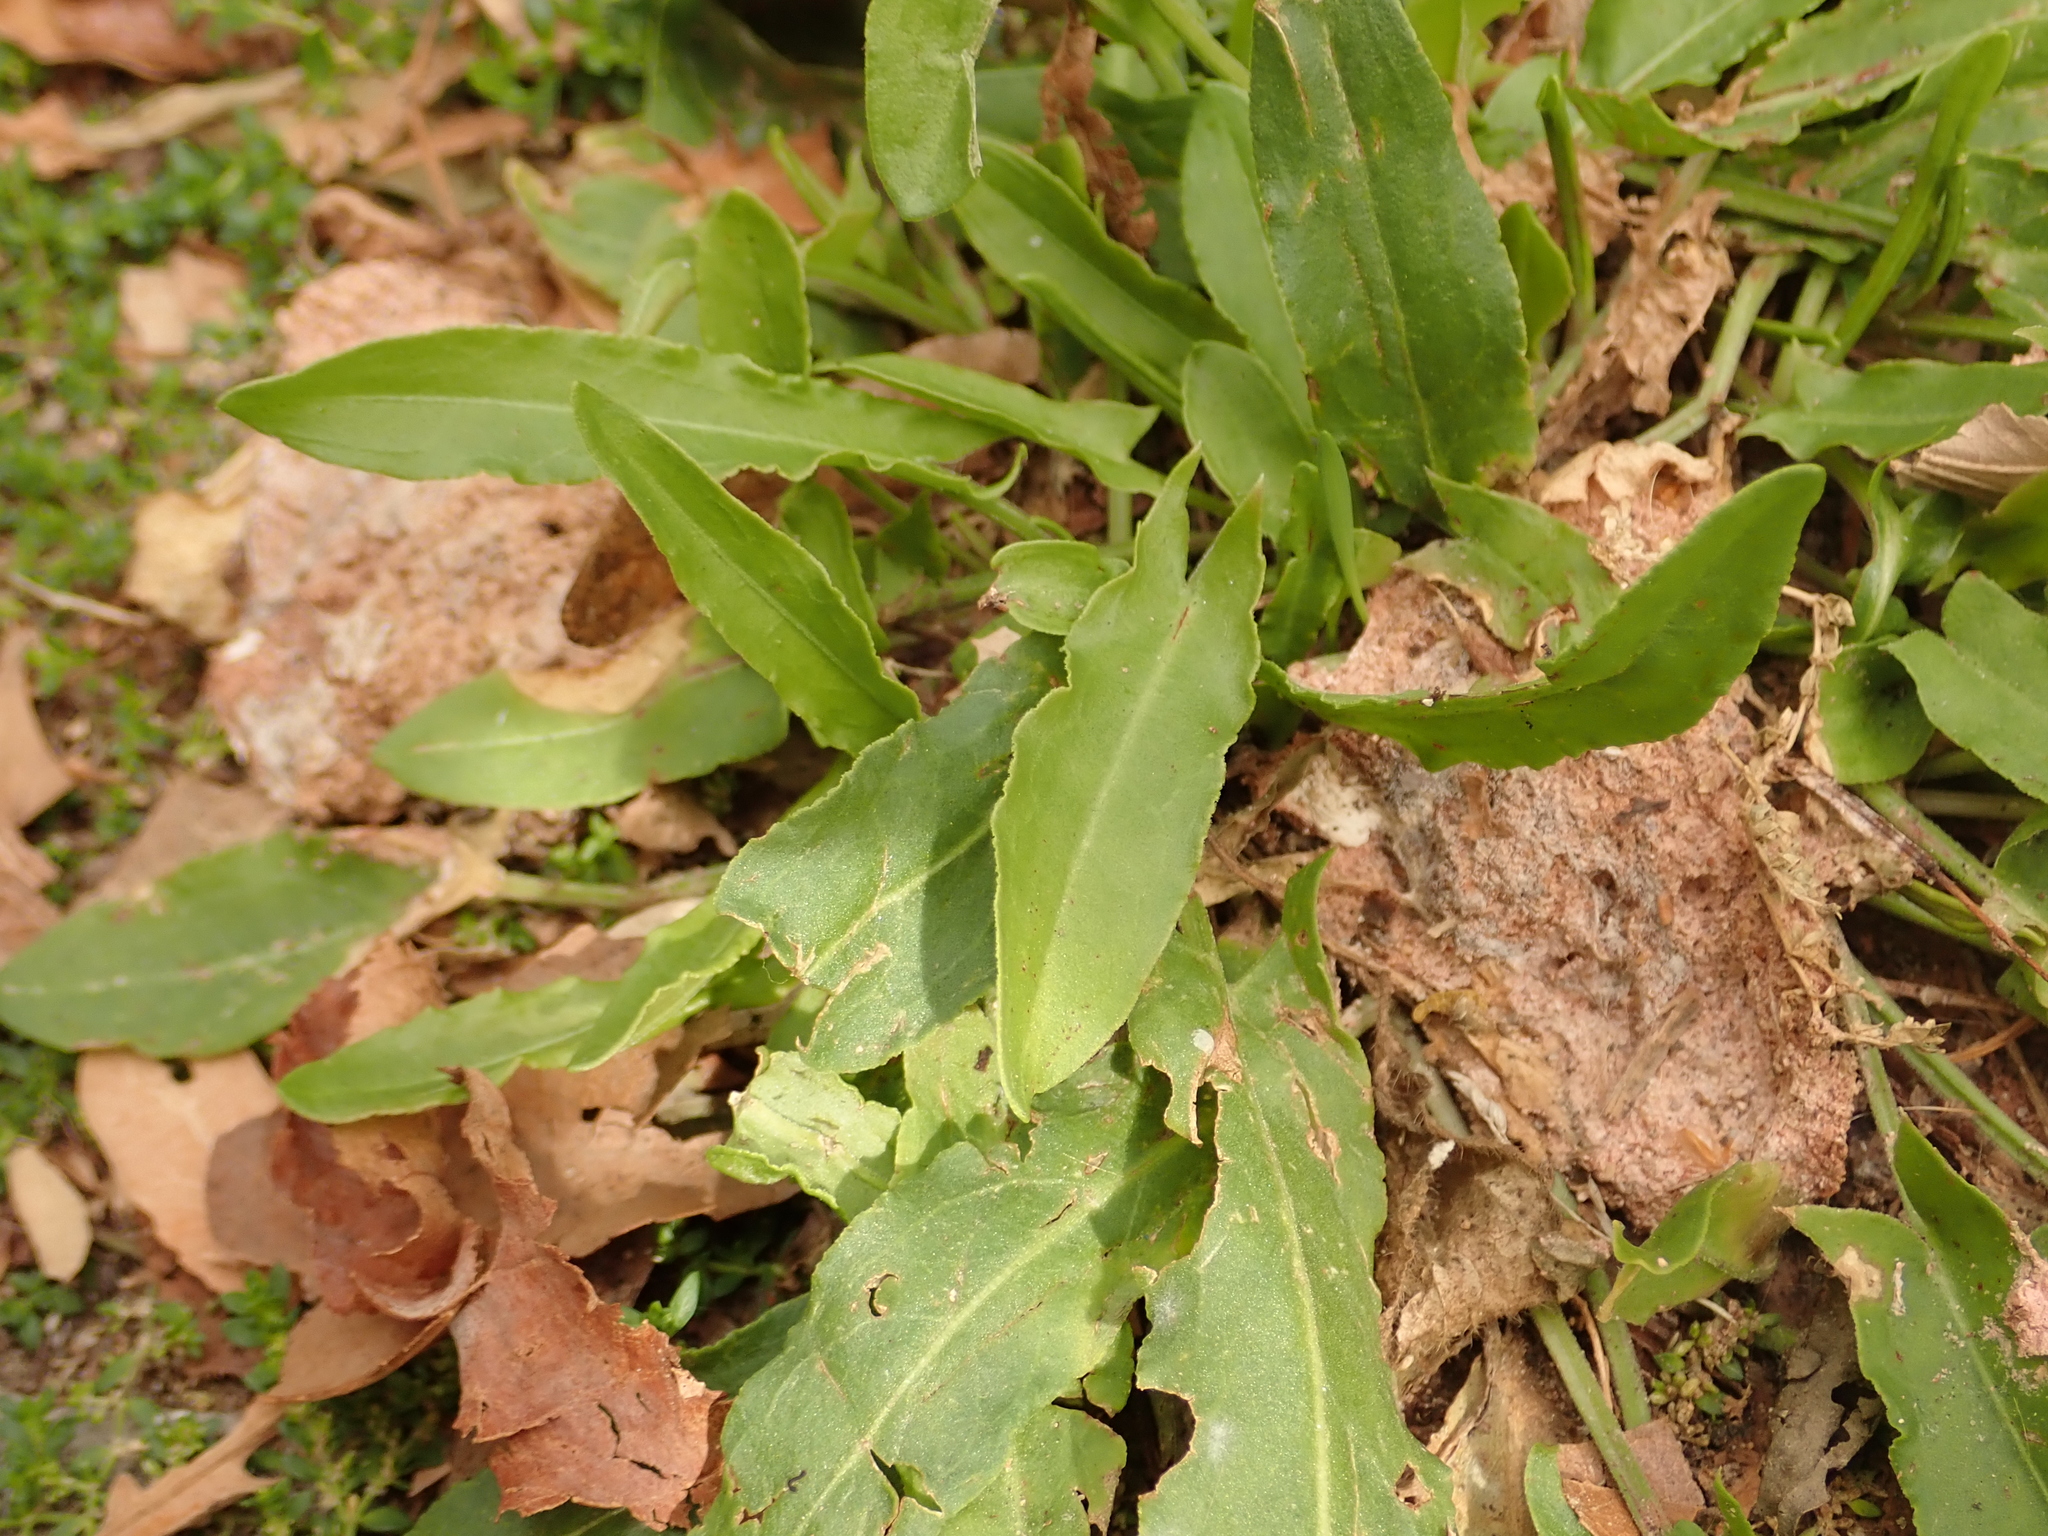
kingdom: Plantae
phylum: Tracheophyta
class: Magnoliopsida
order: Caryophyllales
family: Polygonaceae
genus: Rumex
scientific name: Rumex acetosa
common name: Garden sorrel
